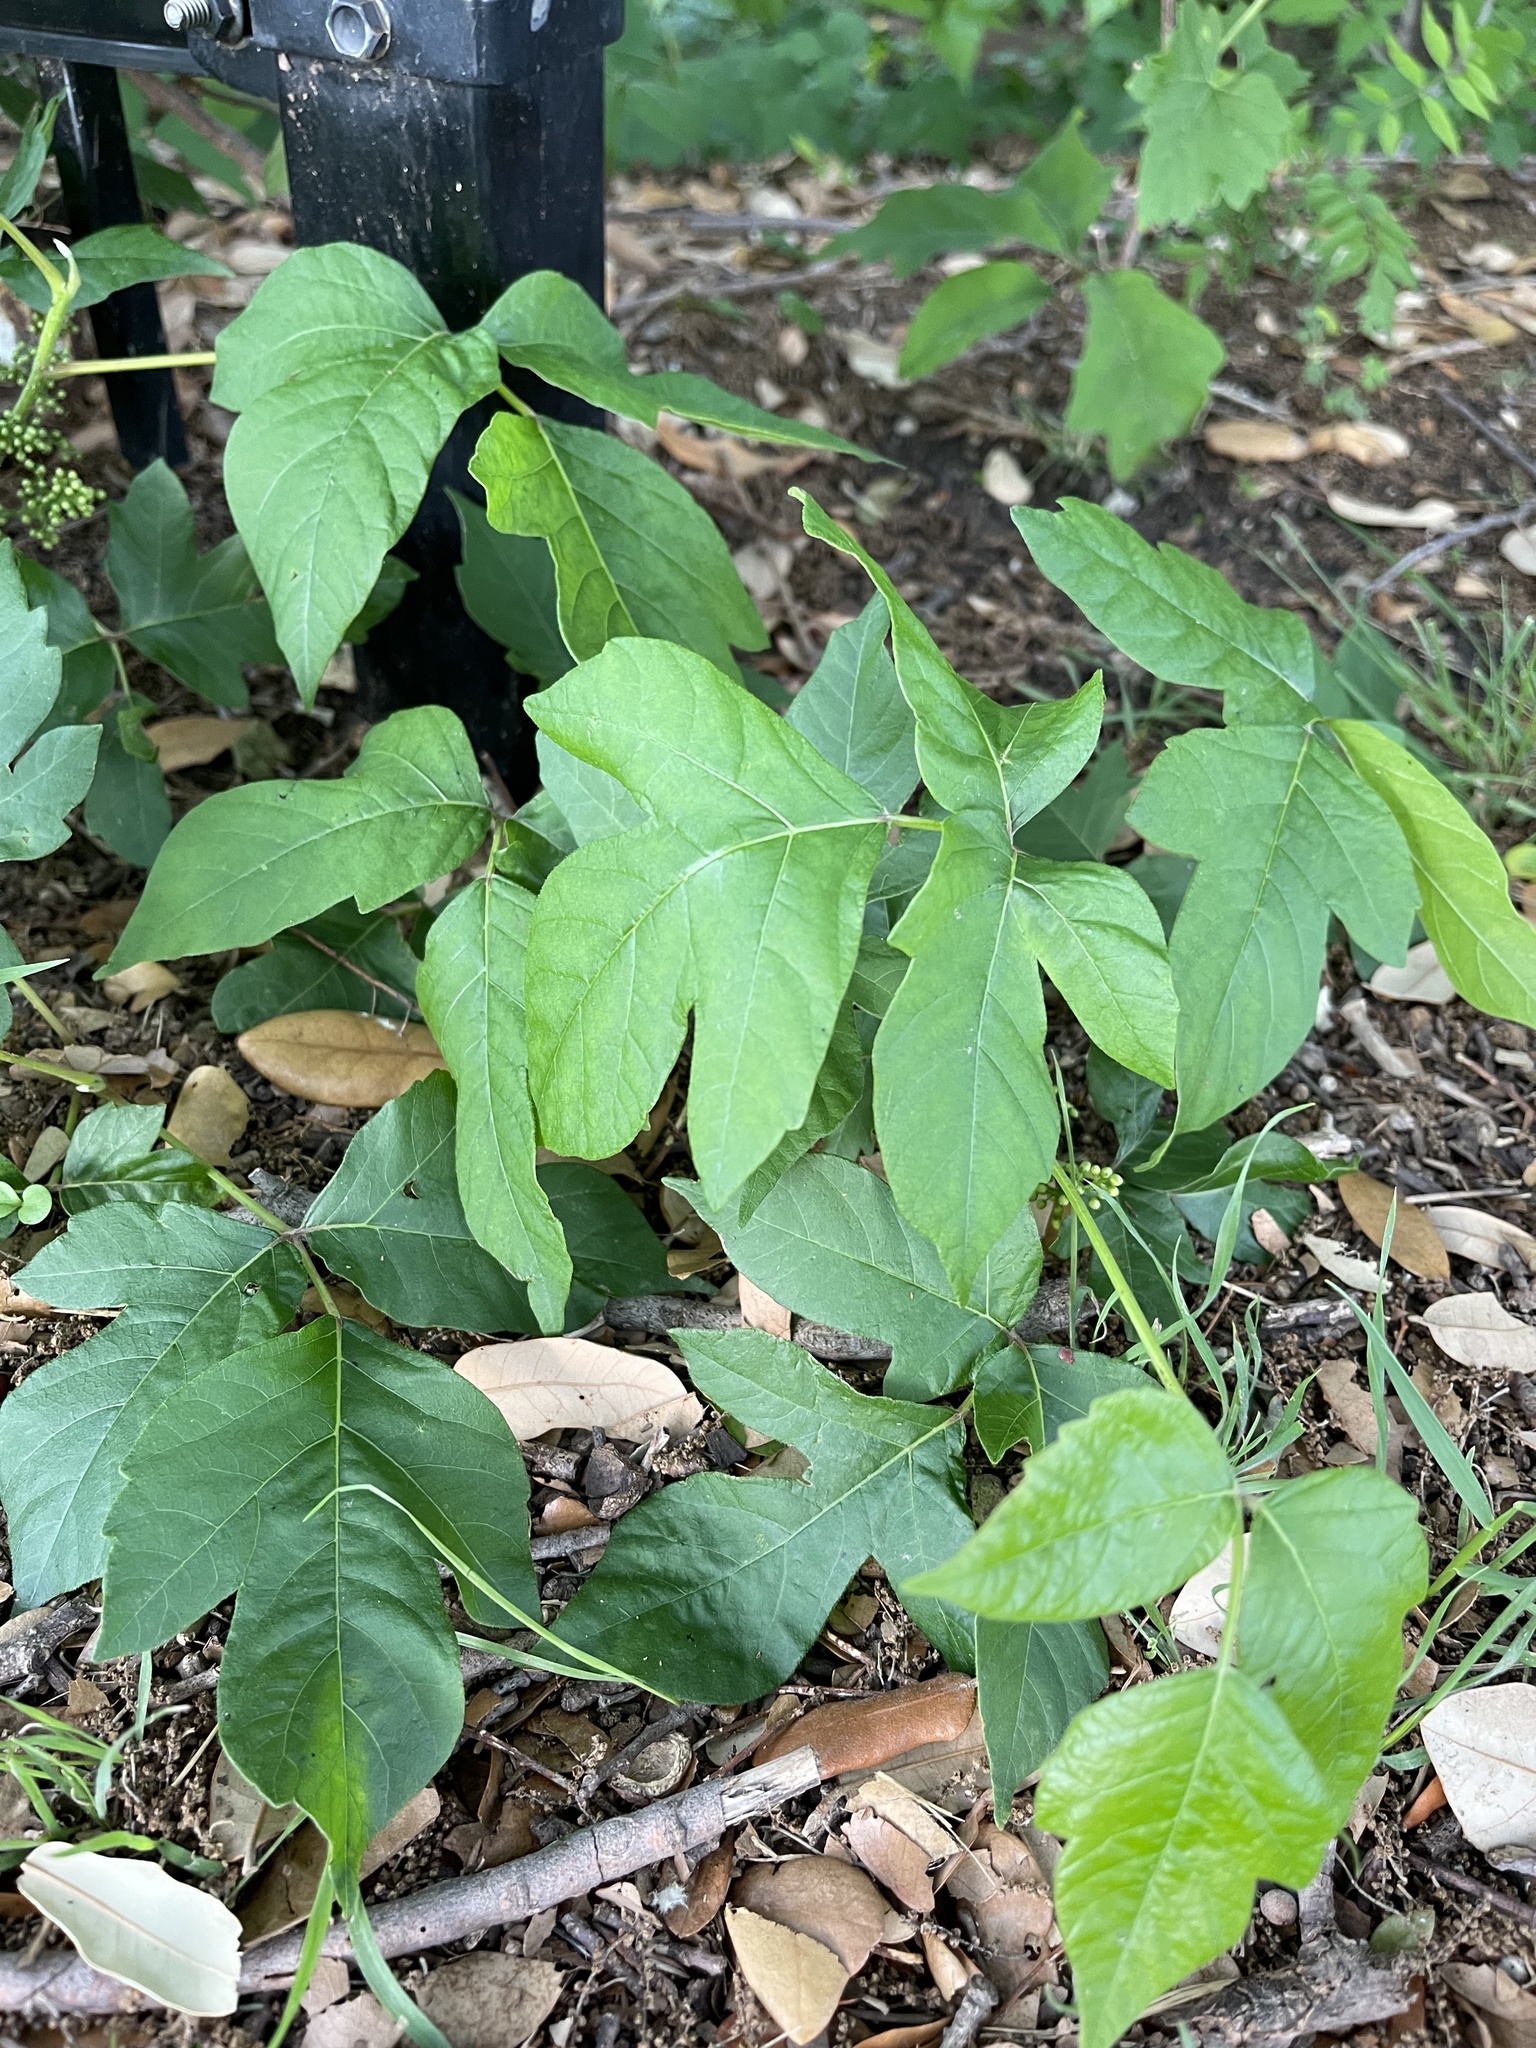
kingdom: Plantae
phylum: Tracheophyta
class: Magnoliopsida
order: Sapindales
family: Anacardiaceae
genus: Toxicodendron
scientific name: Toxicodendron radicans
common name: Poison ivy
